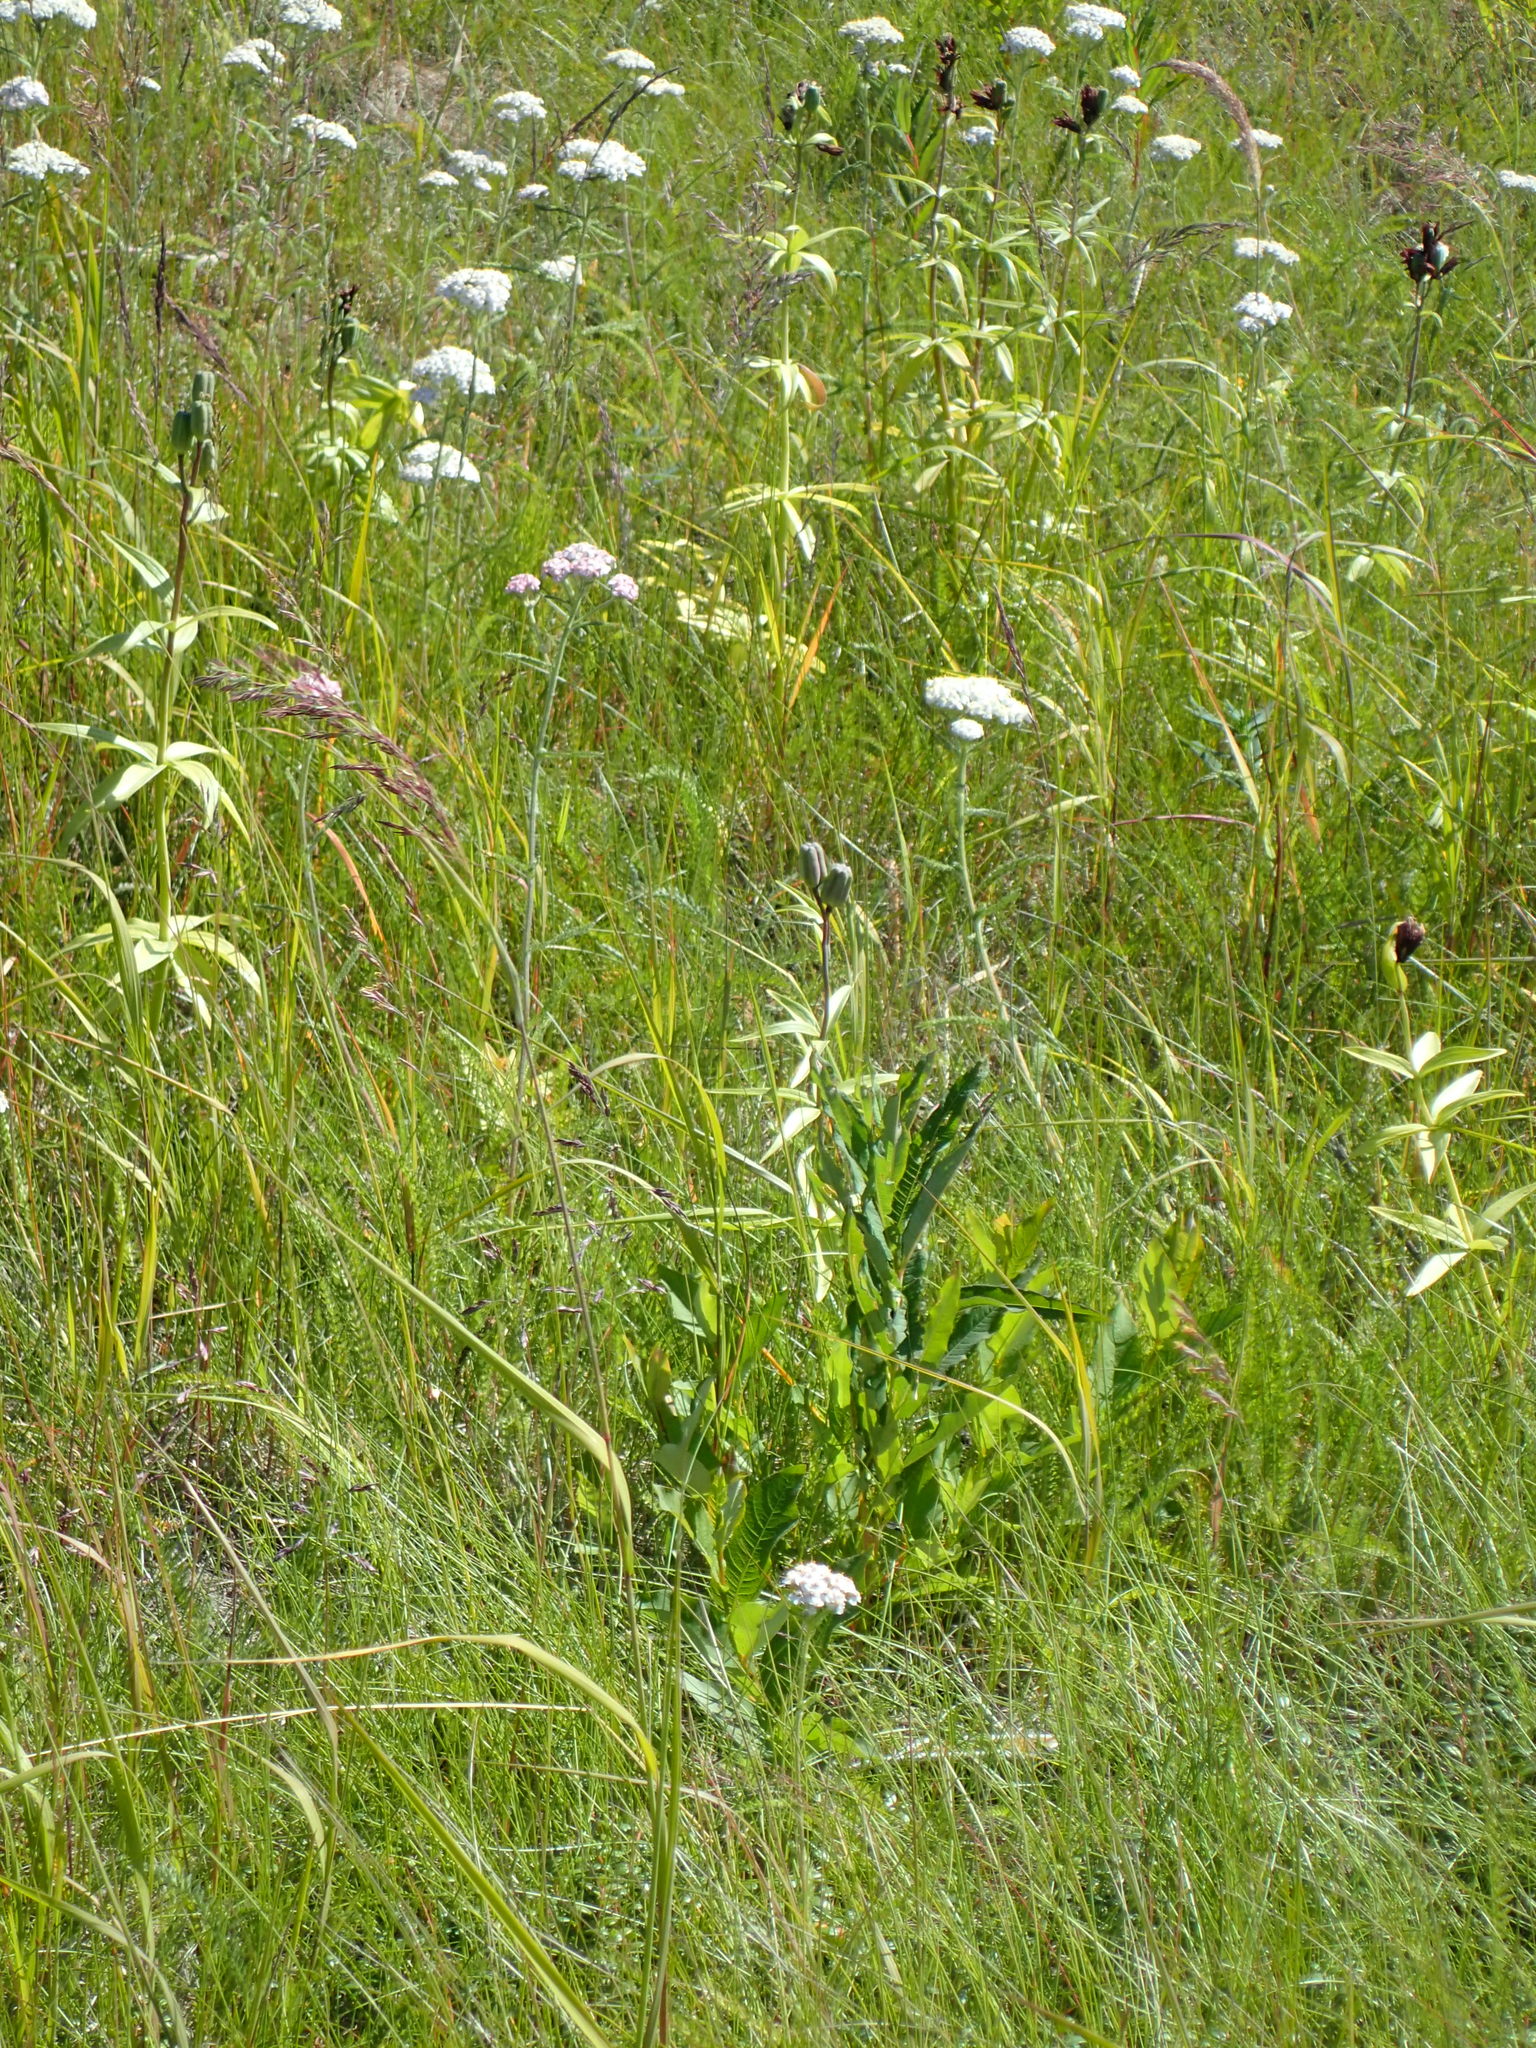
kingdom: Plantae
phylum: Tracheophyta
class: Liliopsida
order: Liliales
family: Liliaceae
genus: Fritillaria
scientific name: Fritillaria camschatcensis
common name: Kamchatka fritillary
